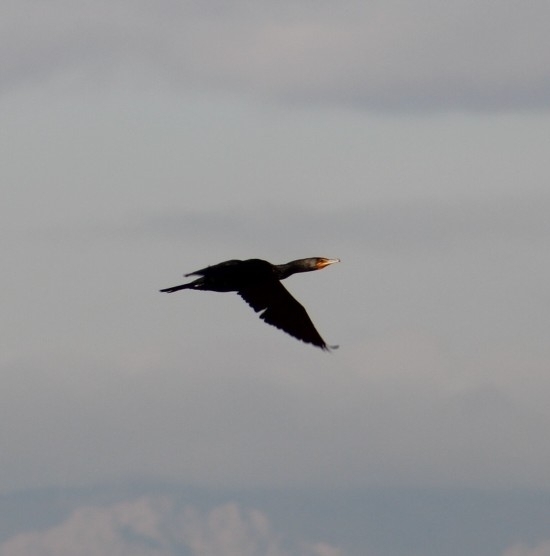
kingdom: Animalia
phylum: Chordata
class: Aves
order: Suliformes
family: Phalacrocoracidae
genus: Phalacrocorax
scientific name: Phalacrocorax auritus
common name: Double-crested cormorant
